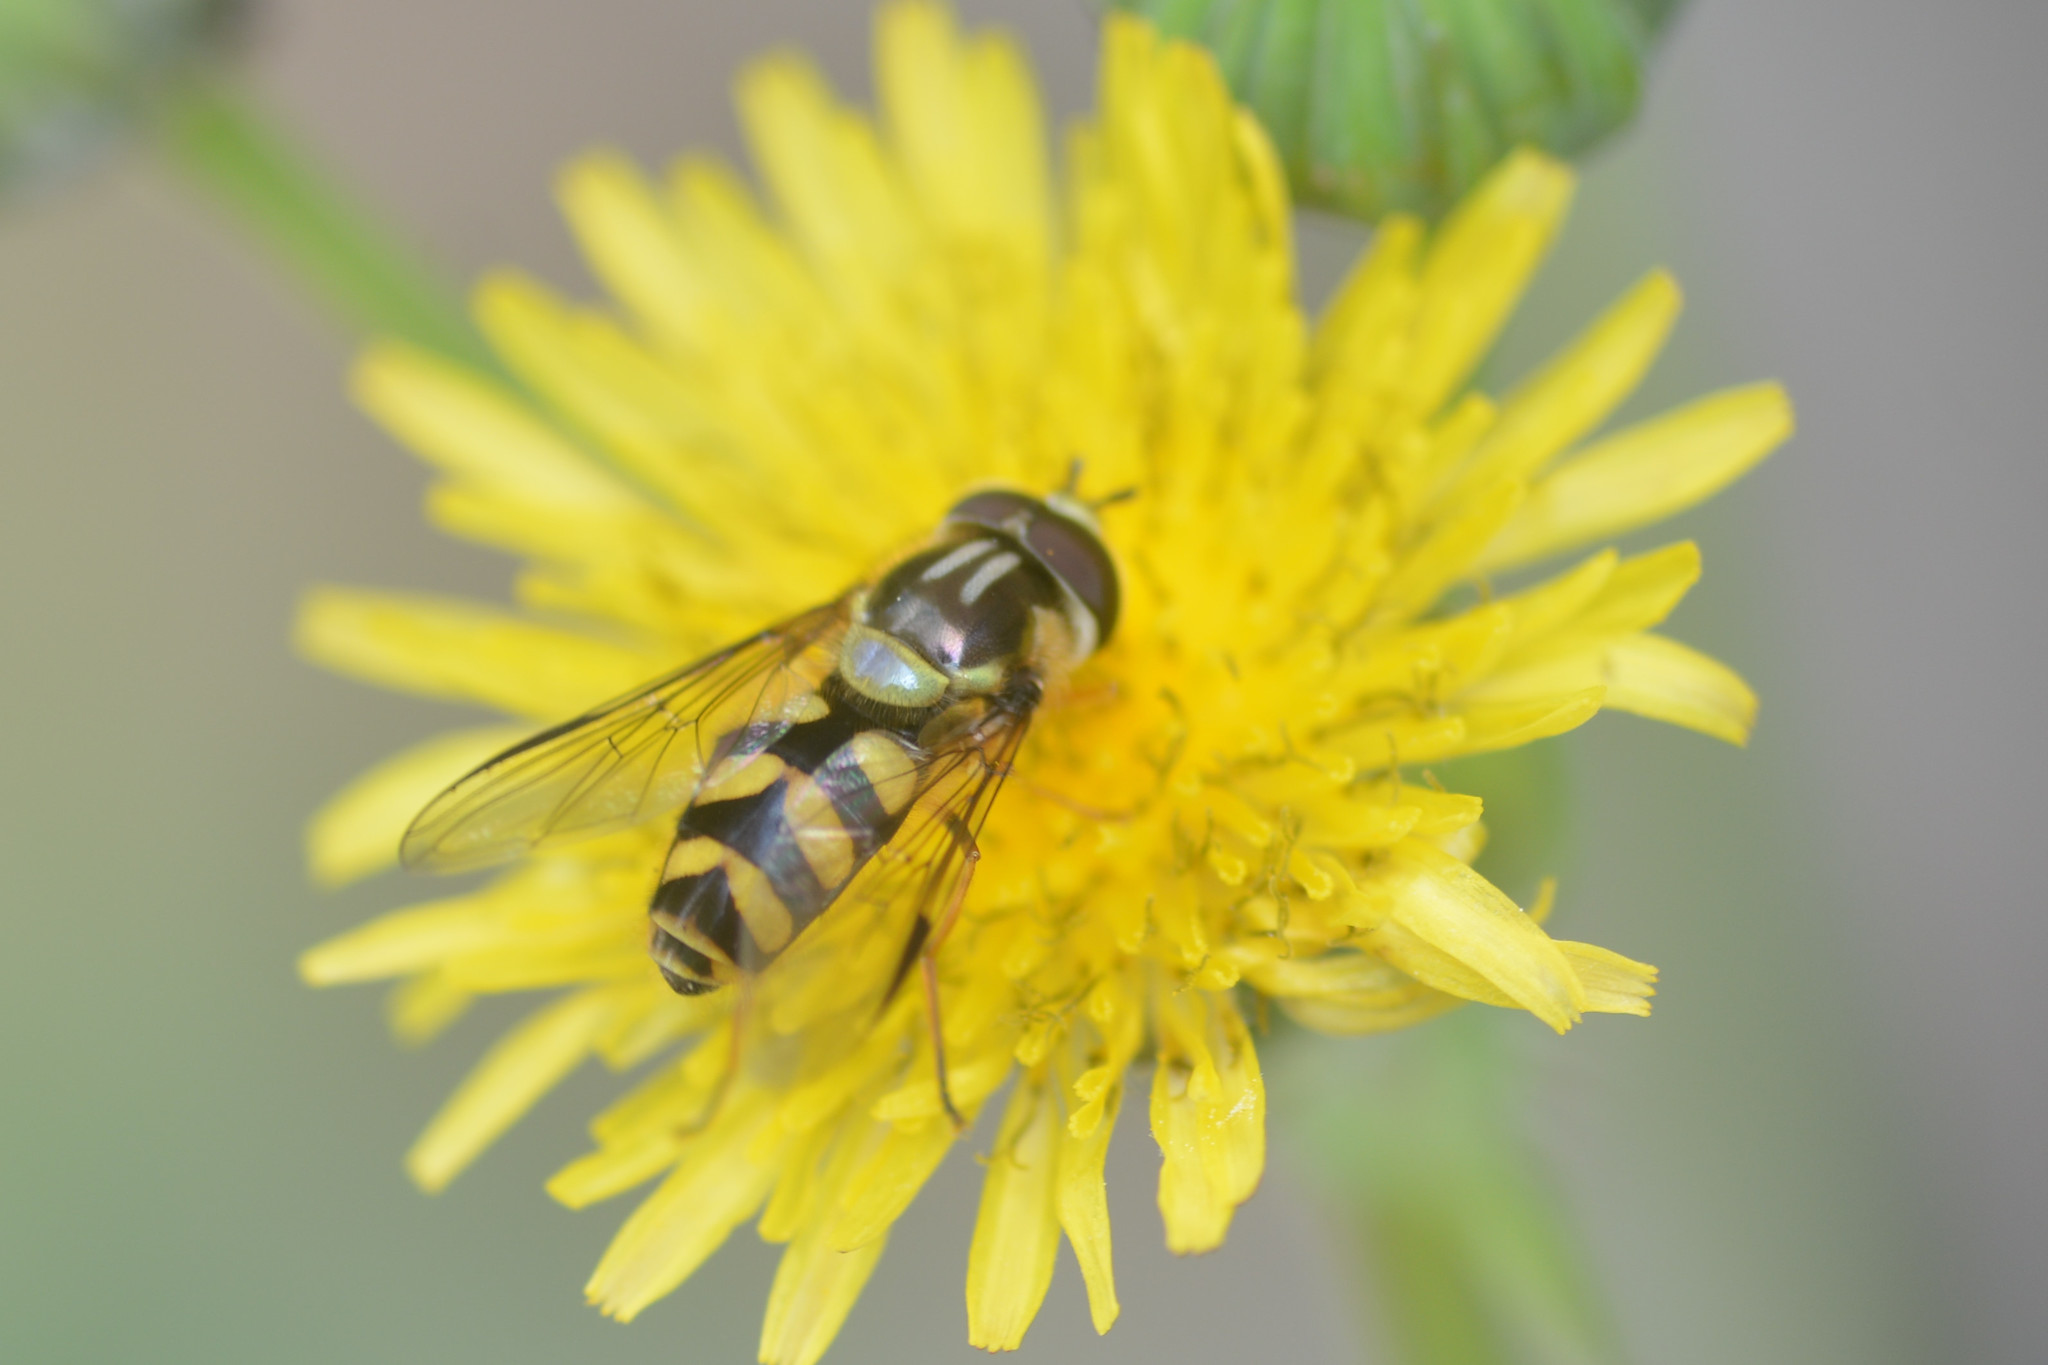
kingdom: Animalia
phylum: Arthropoda
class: Insecta
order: Diptera
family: Syrphidae
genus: Dasysyrphus
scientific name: Dasysyrphus albostriatus
